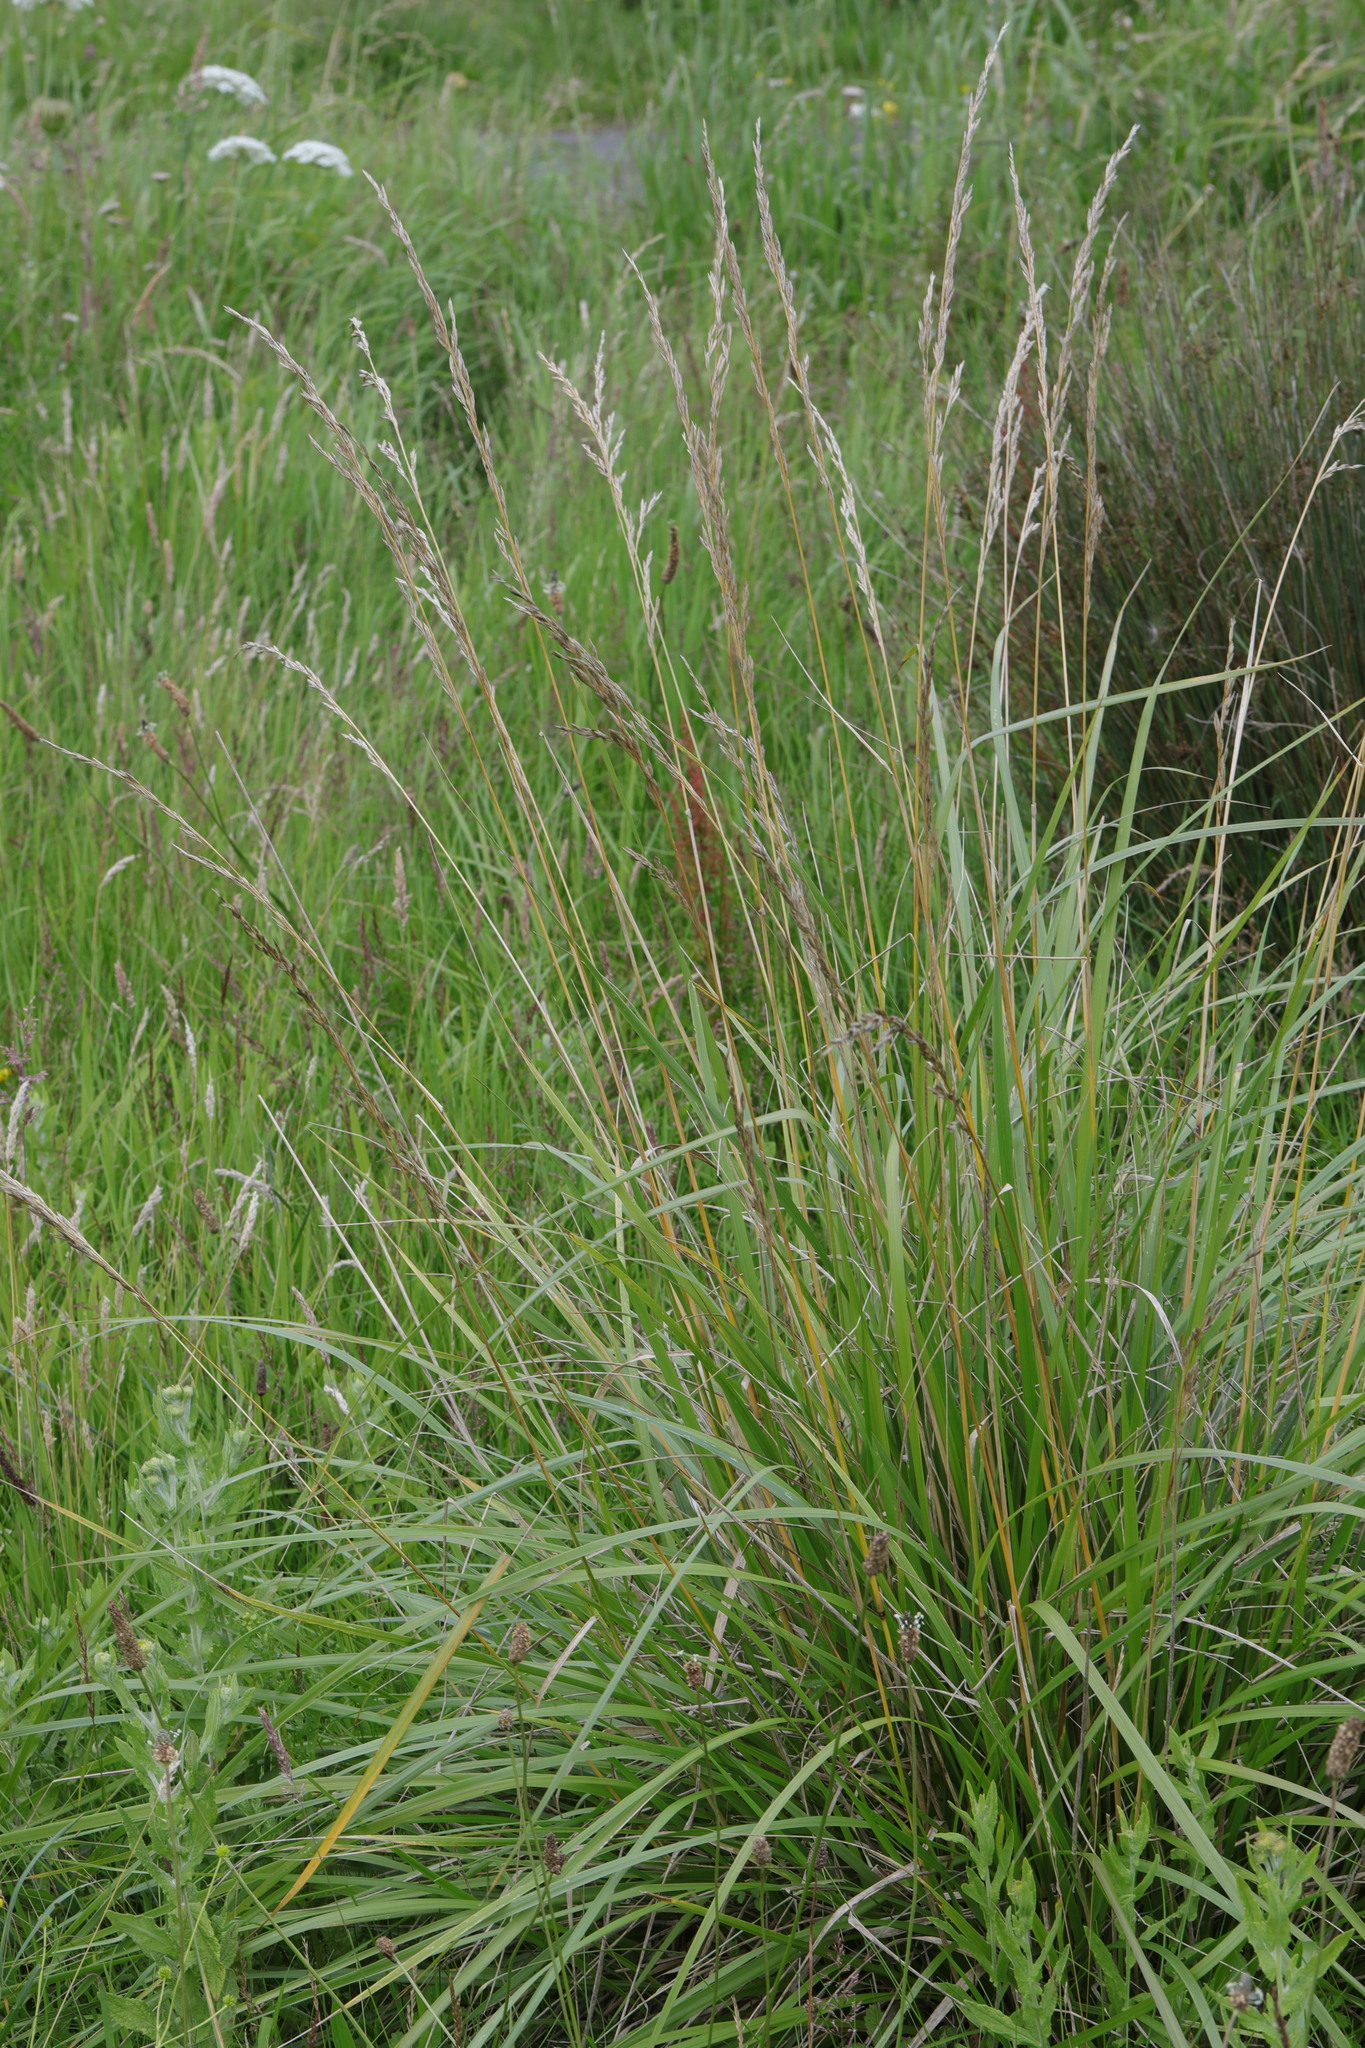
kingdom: Plantae
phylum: Tracheophyta
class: Liliopsida
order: Poales
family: Poaceae
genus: Lolium
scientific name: Lolium arundinaceum
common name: Reed fescue
